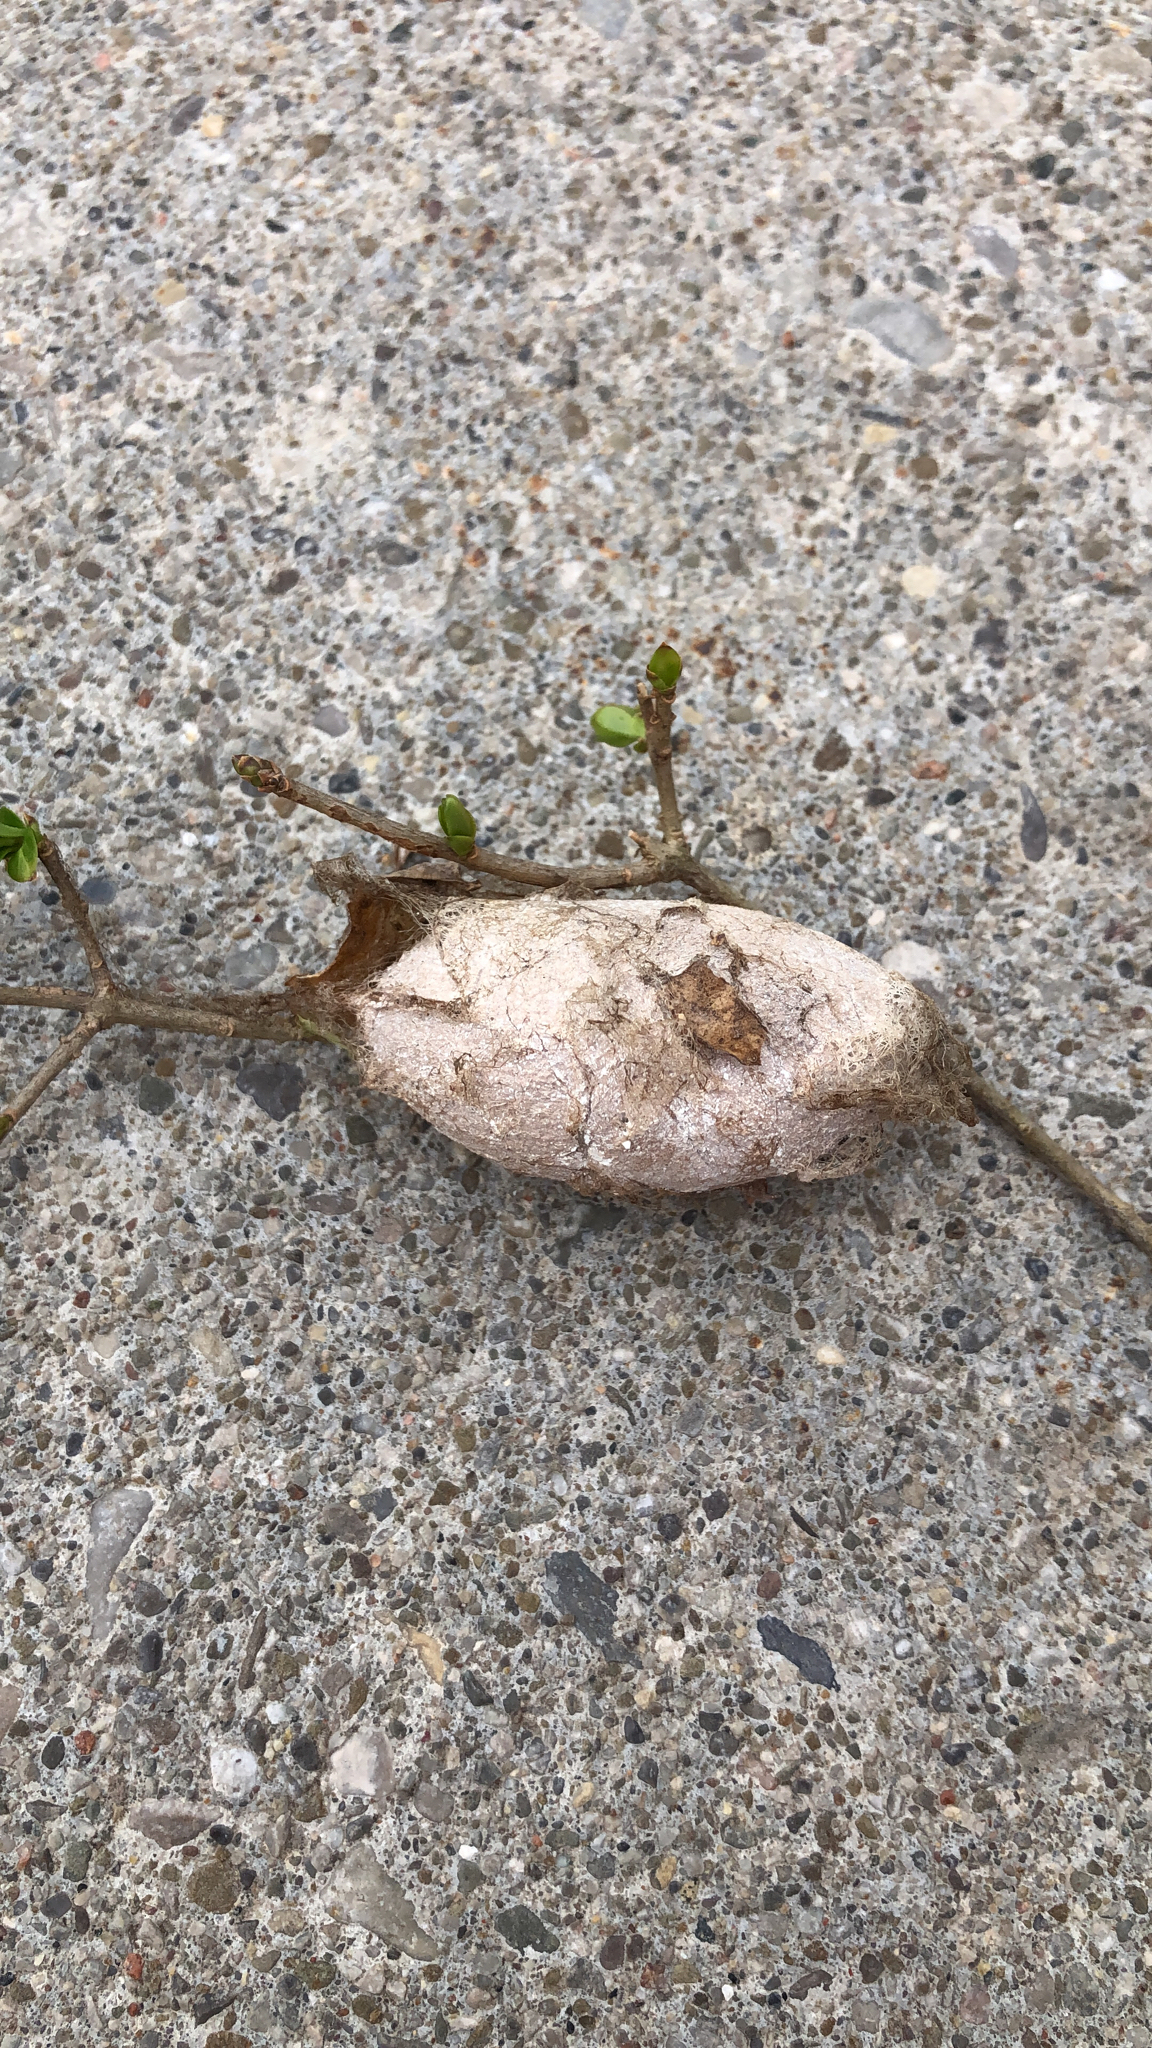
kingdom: Animalia
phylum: Arthropoda
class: Insecta
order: Lepidoptera
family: Saturniidae
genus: Antheraea
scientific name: Antheraea polyphemus
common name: Polyphemus moth
